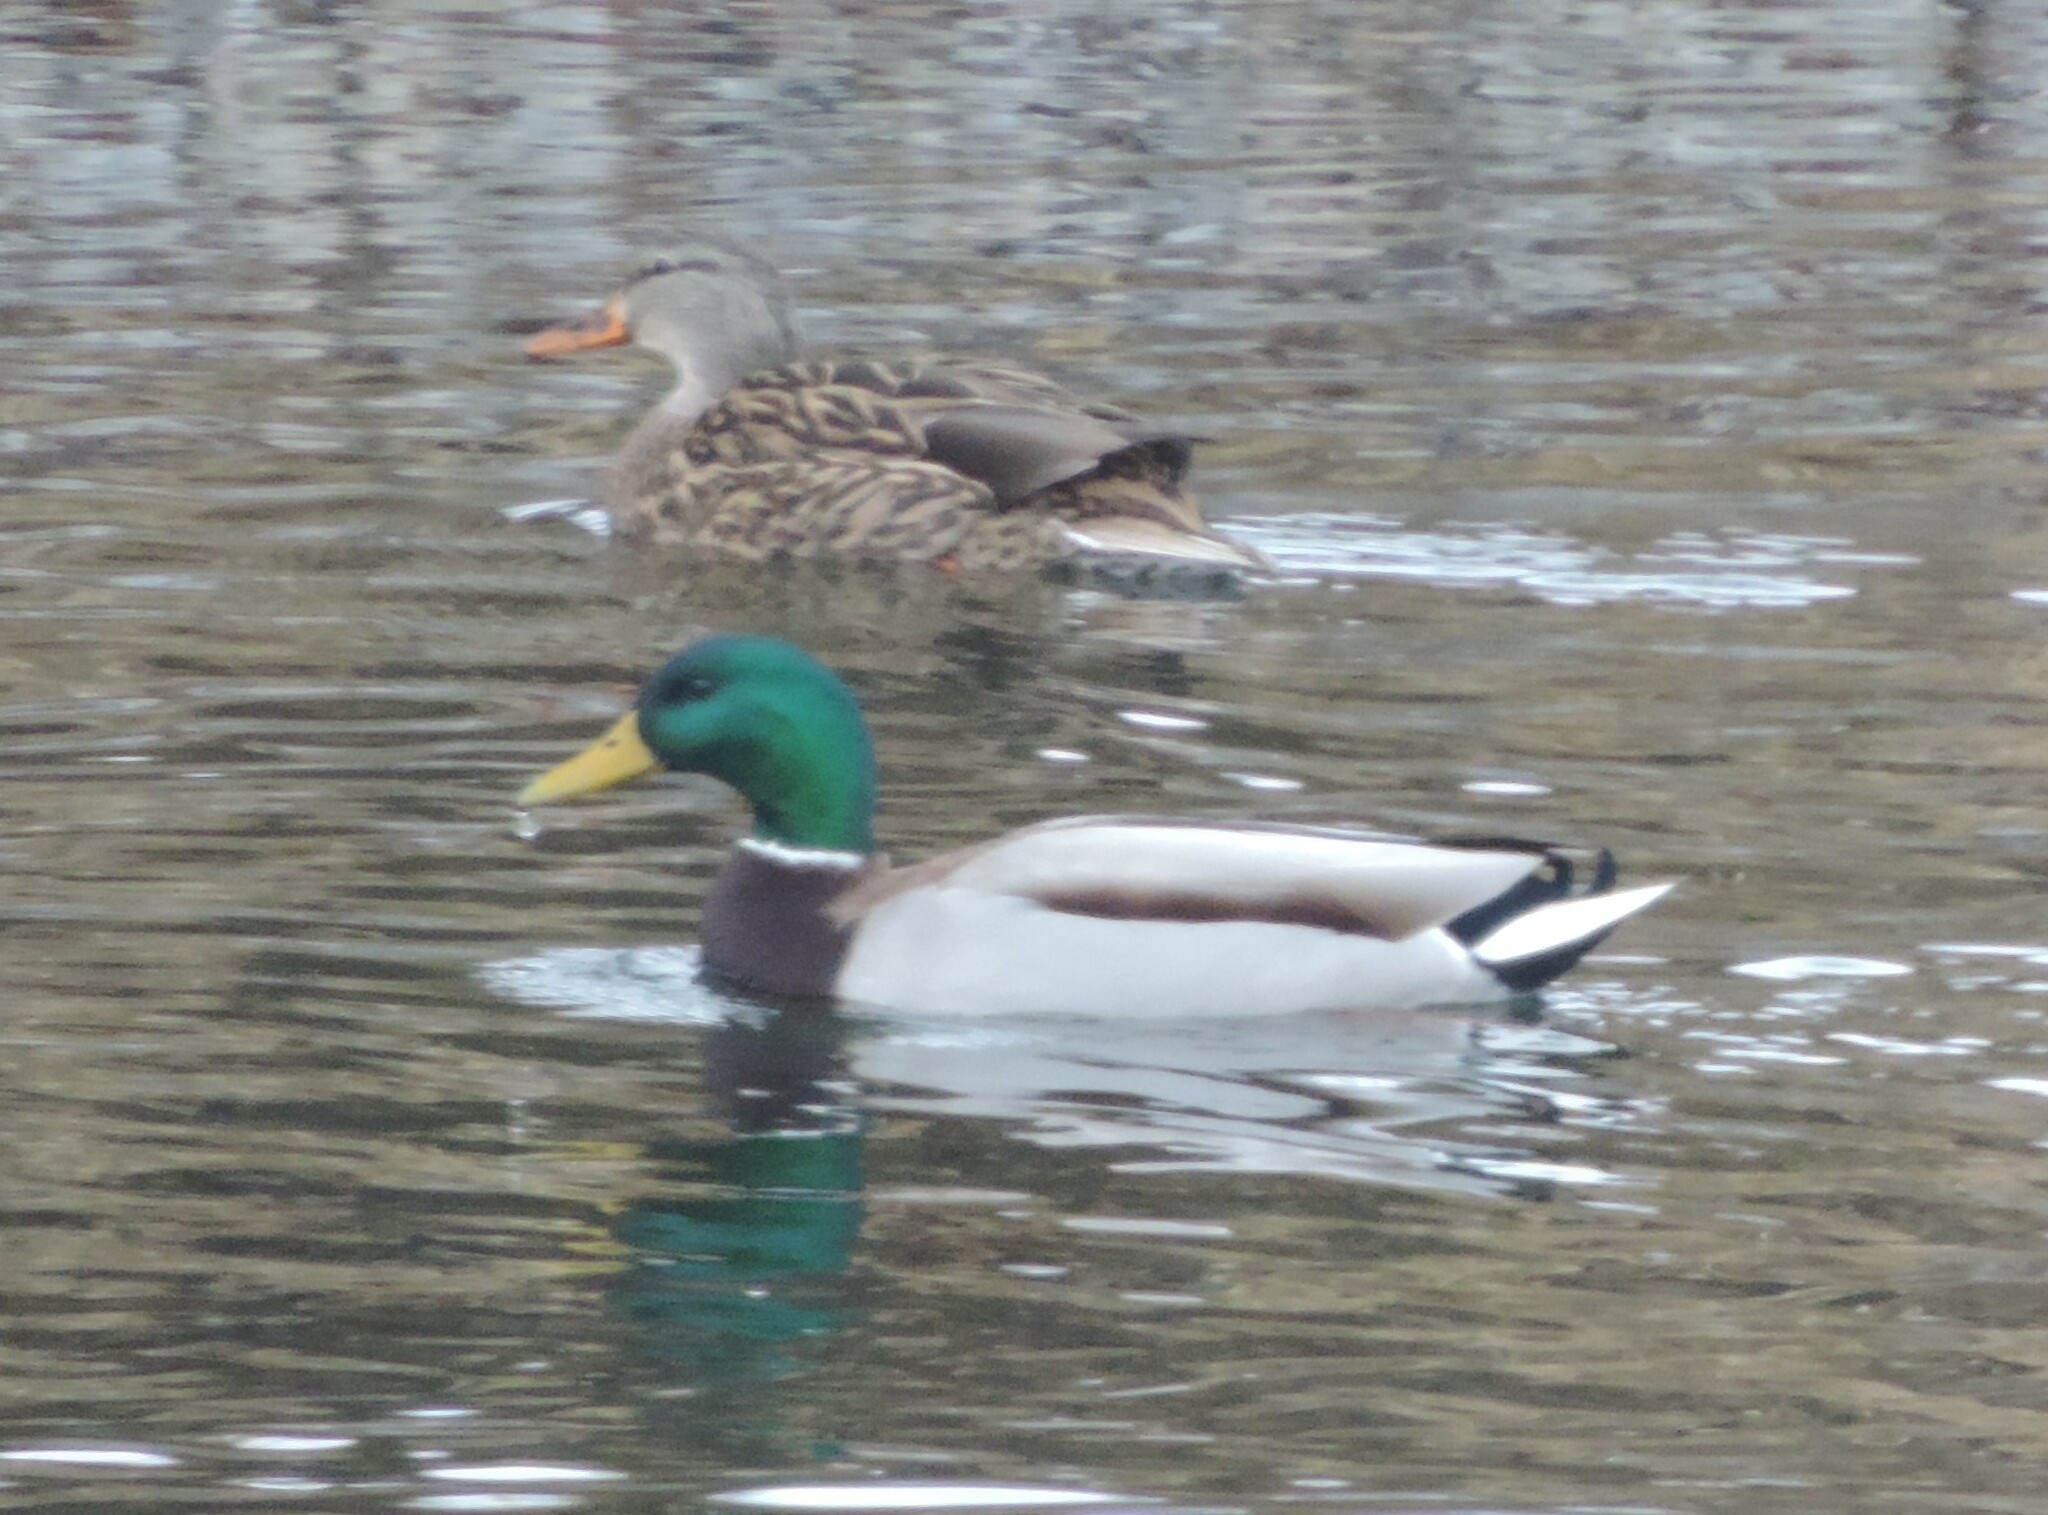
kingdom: Animalia
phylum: Chordata
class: Aves
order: Anseriformes
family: Anatidae
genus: Anas
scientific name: Anas platyrhynchos
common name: Mallard
